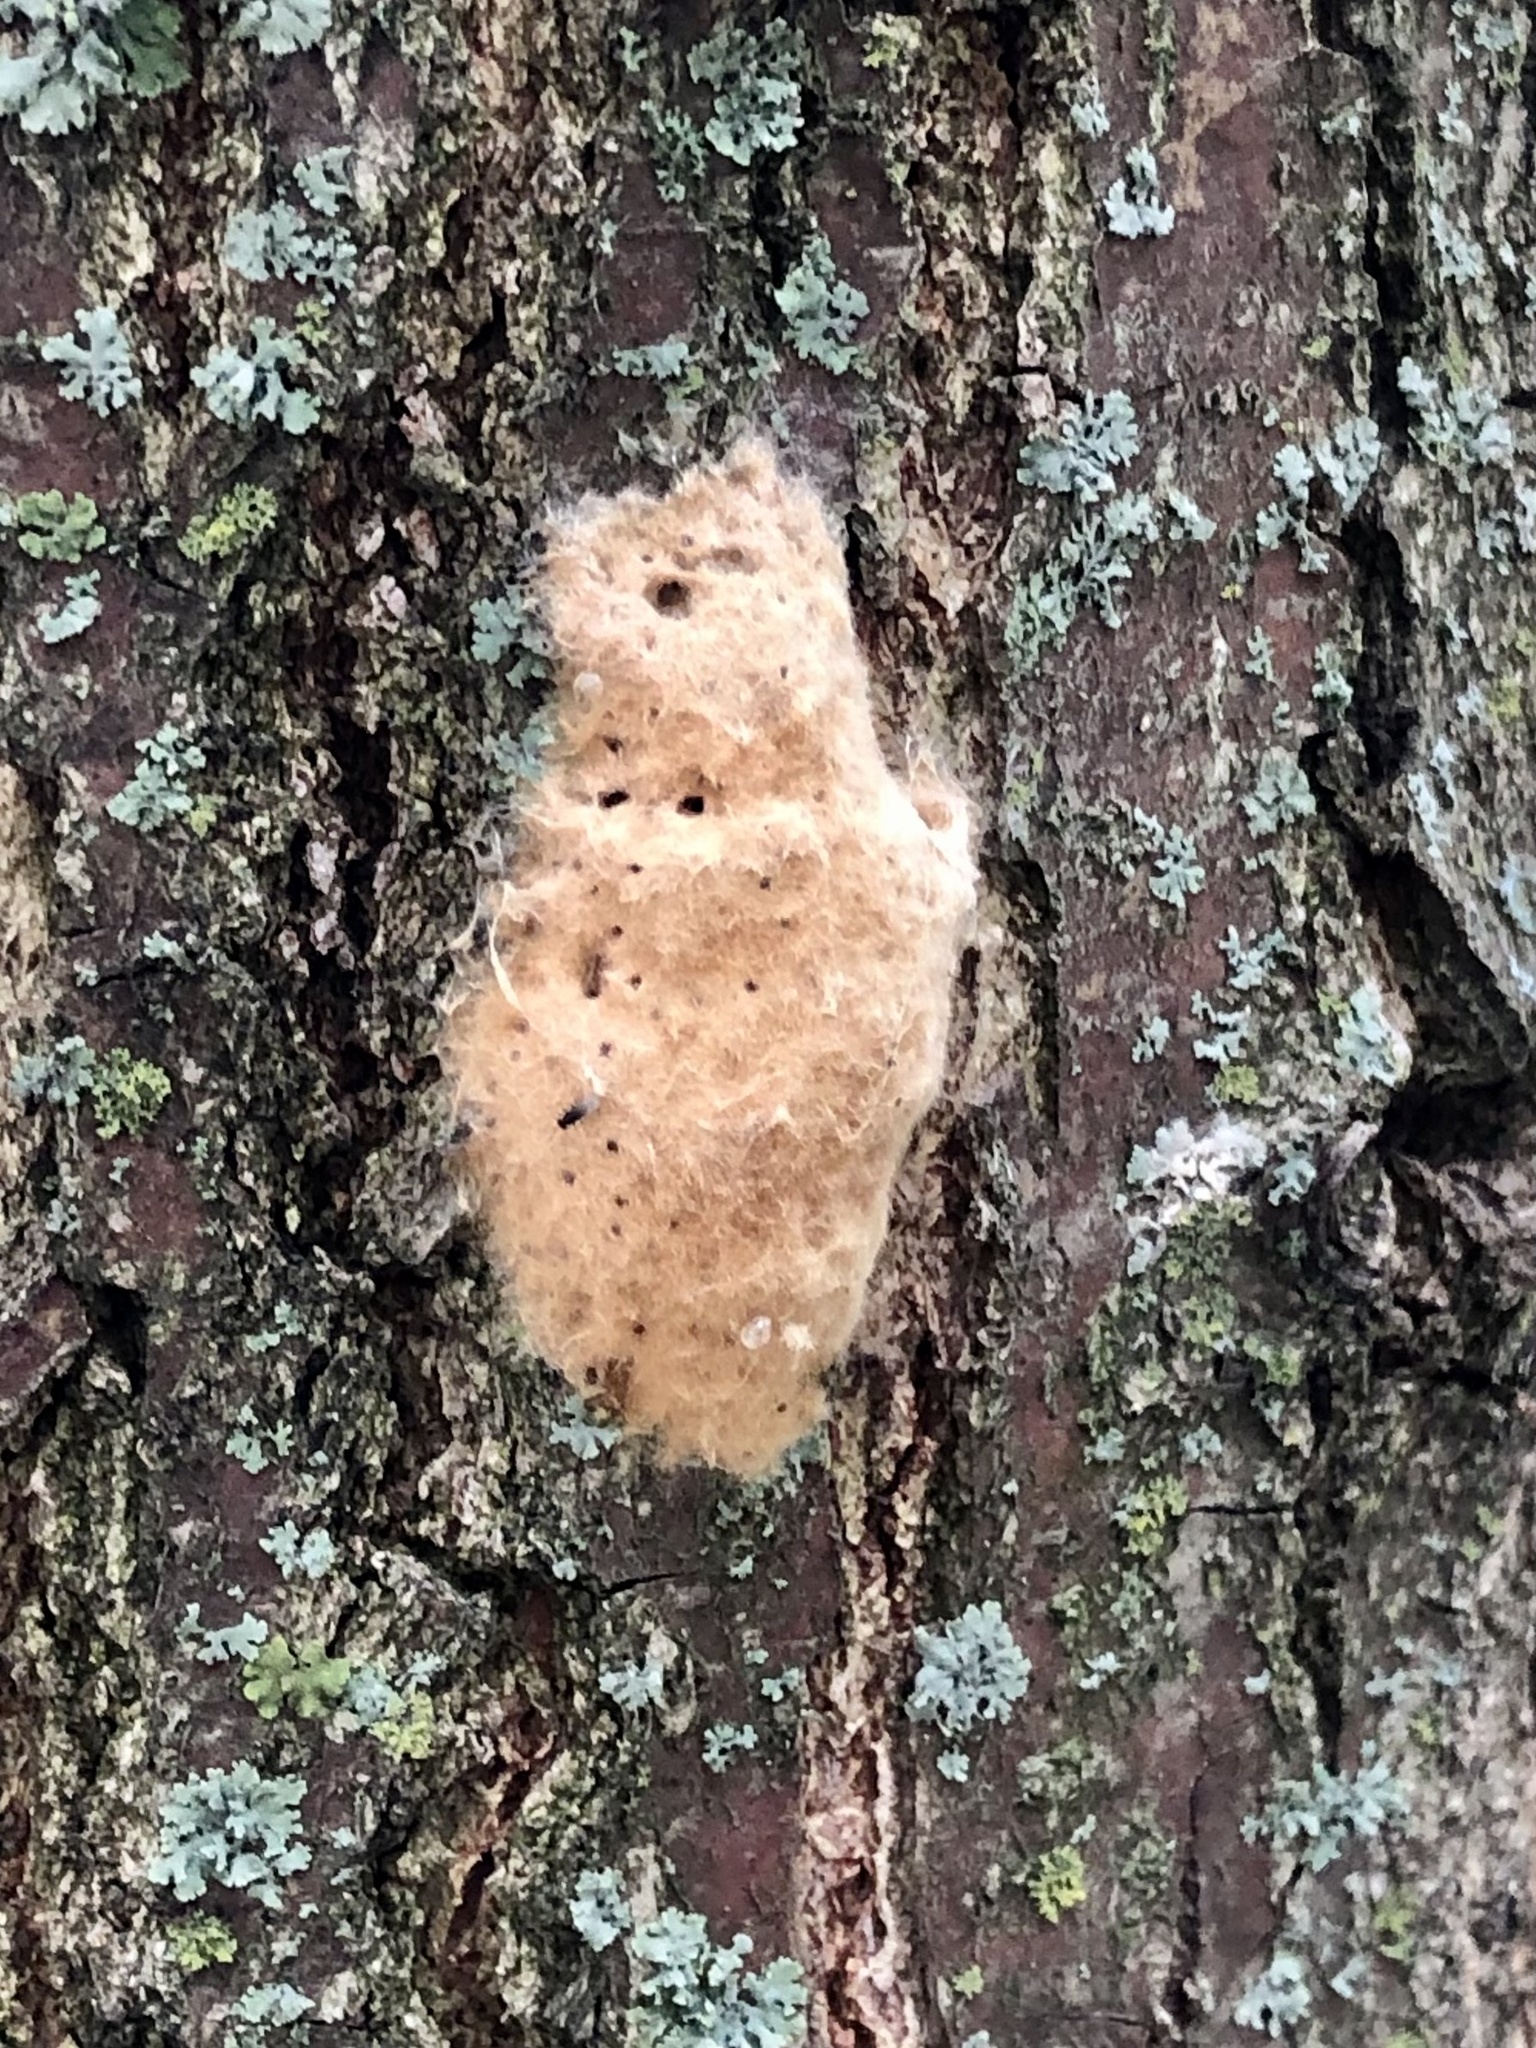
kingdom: Animalia
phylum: Arthropoda
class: Insecta
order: Lepidoptera
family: Erebidae
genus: Lymantria
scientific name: Lymantria dispar
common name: Gypsy moth
